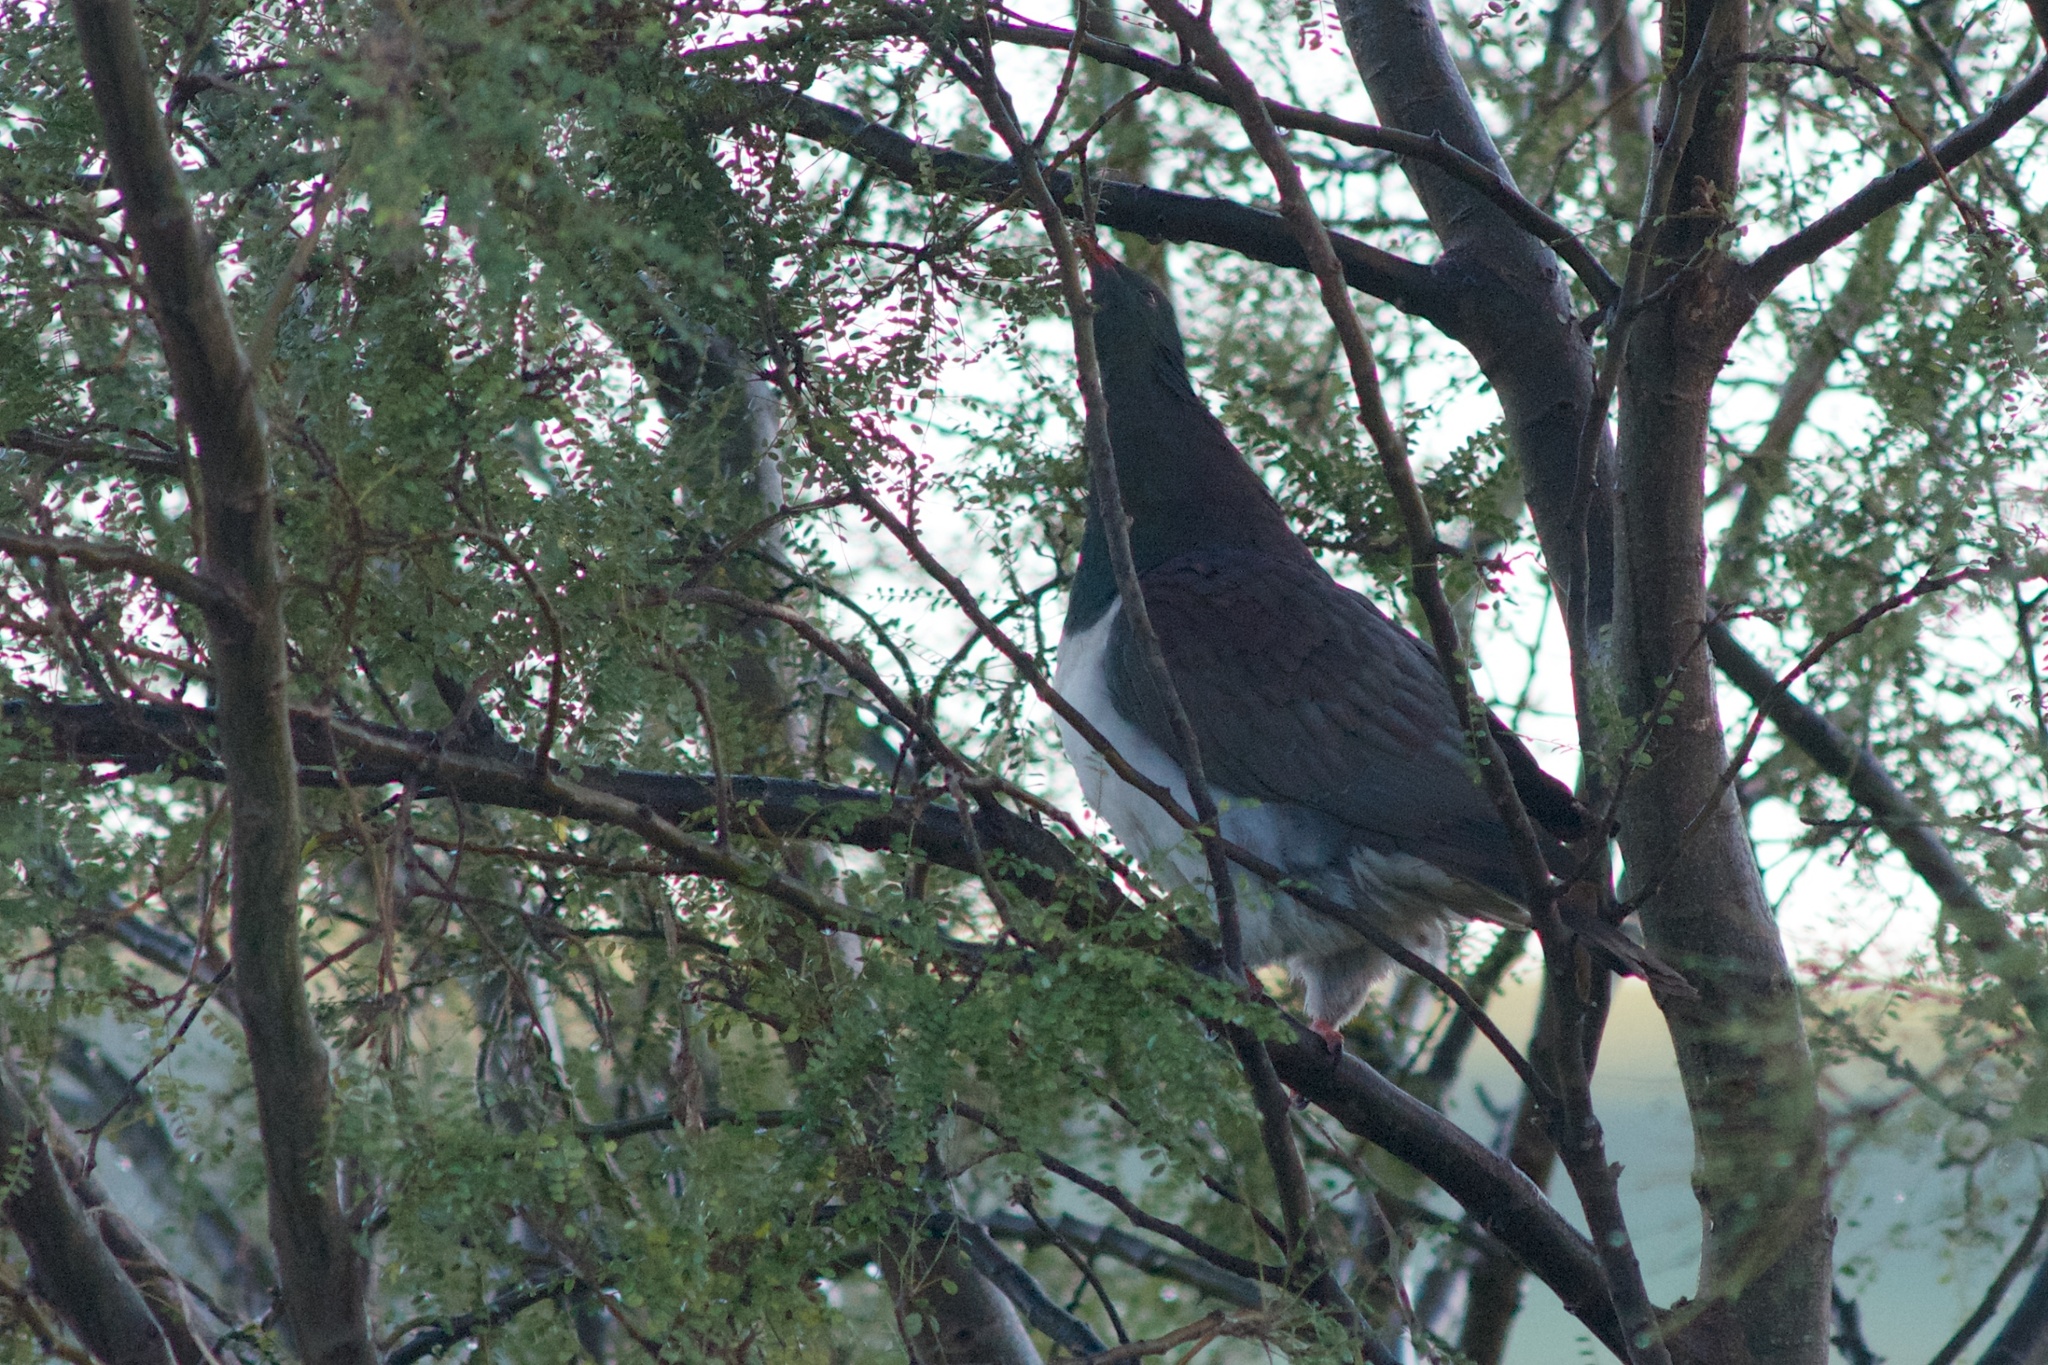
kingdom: Animalia
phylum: Chordata
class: Aves
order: Columbiformes
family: Columbidae
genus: Hemiphaga
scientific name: Hemiphaga novaeseelandiae
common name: New zealand pigeon
